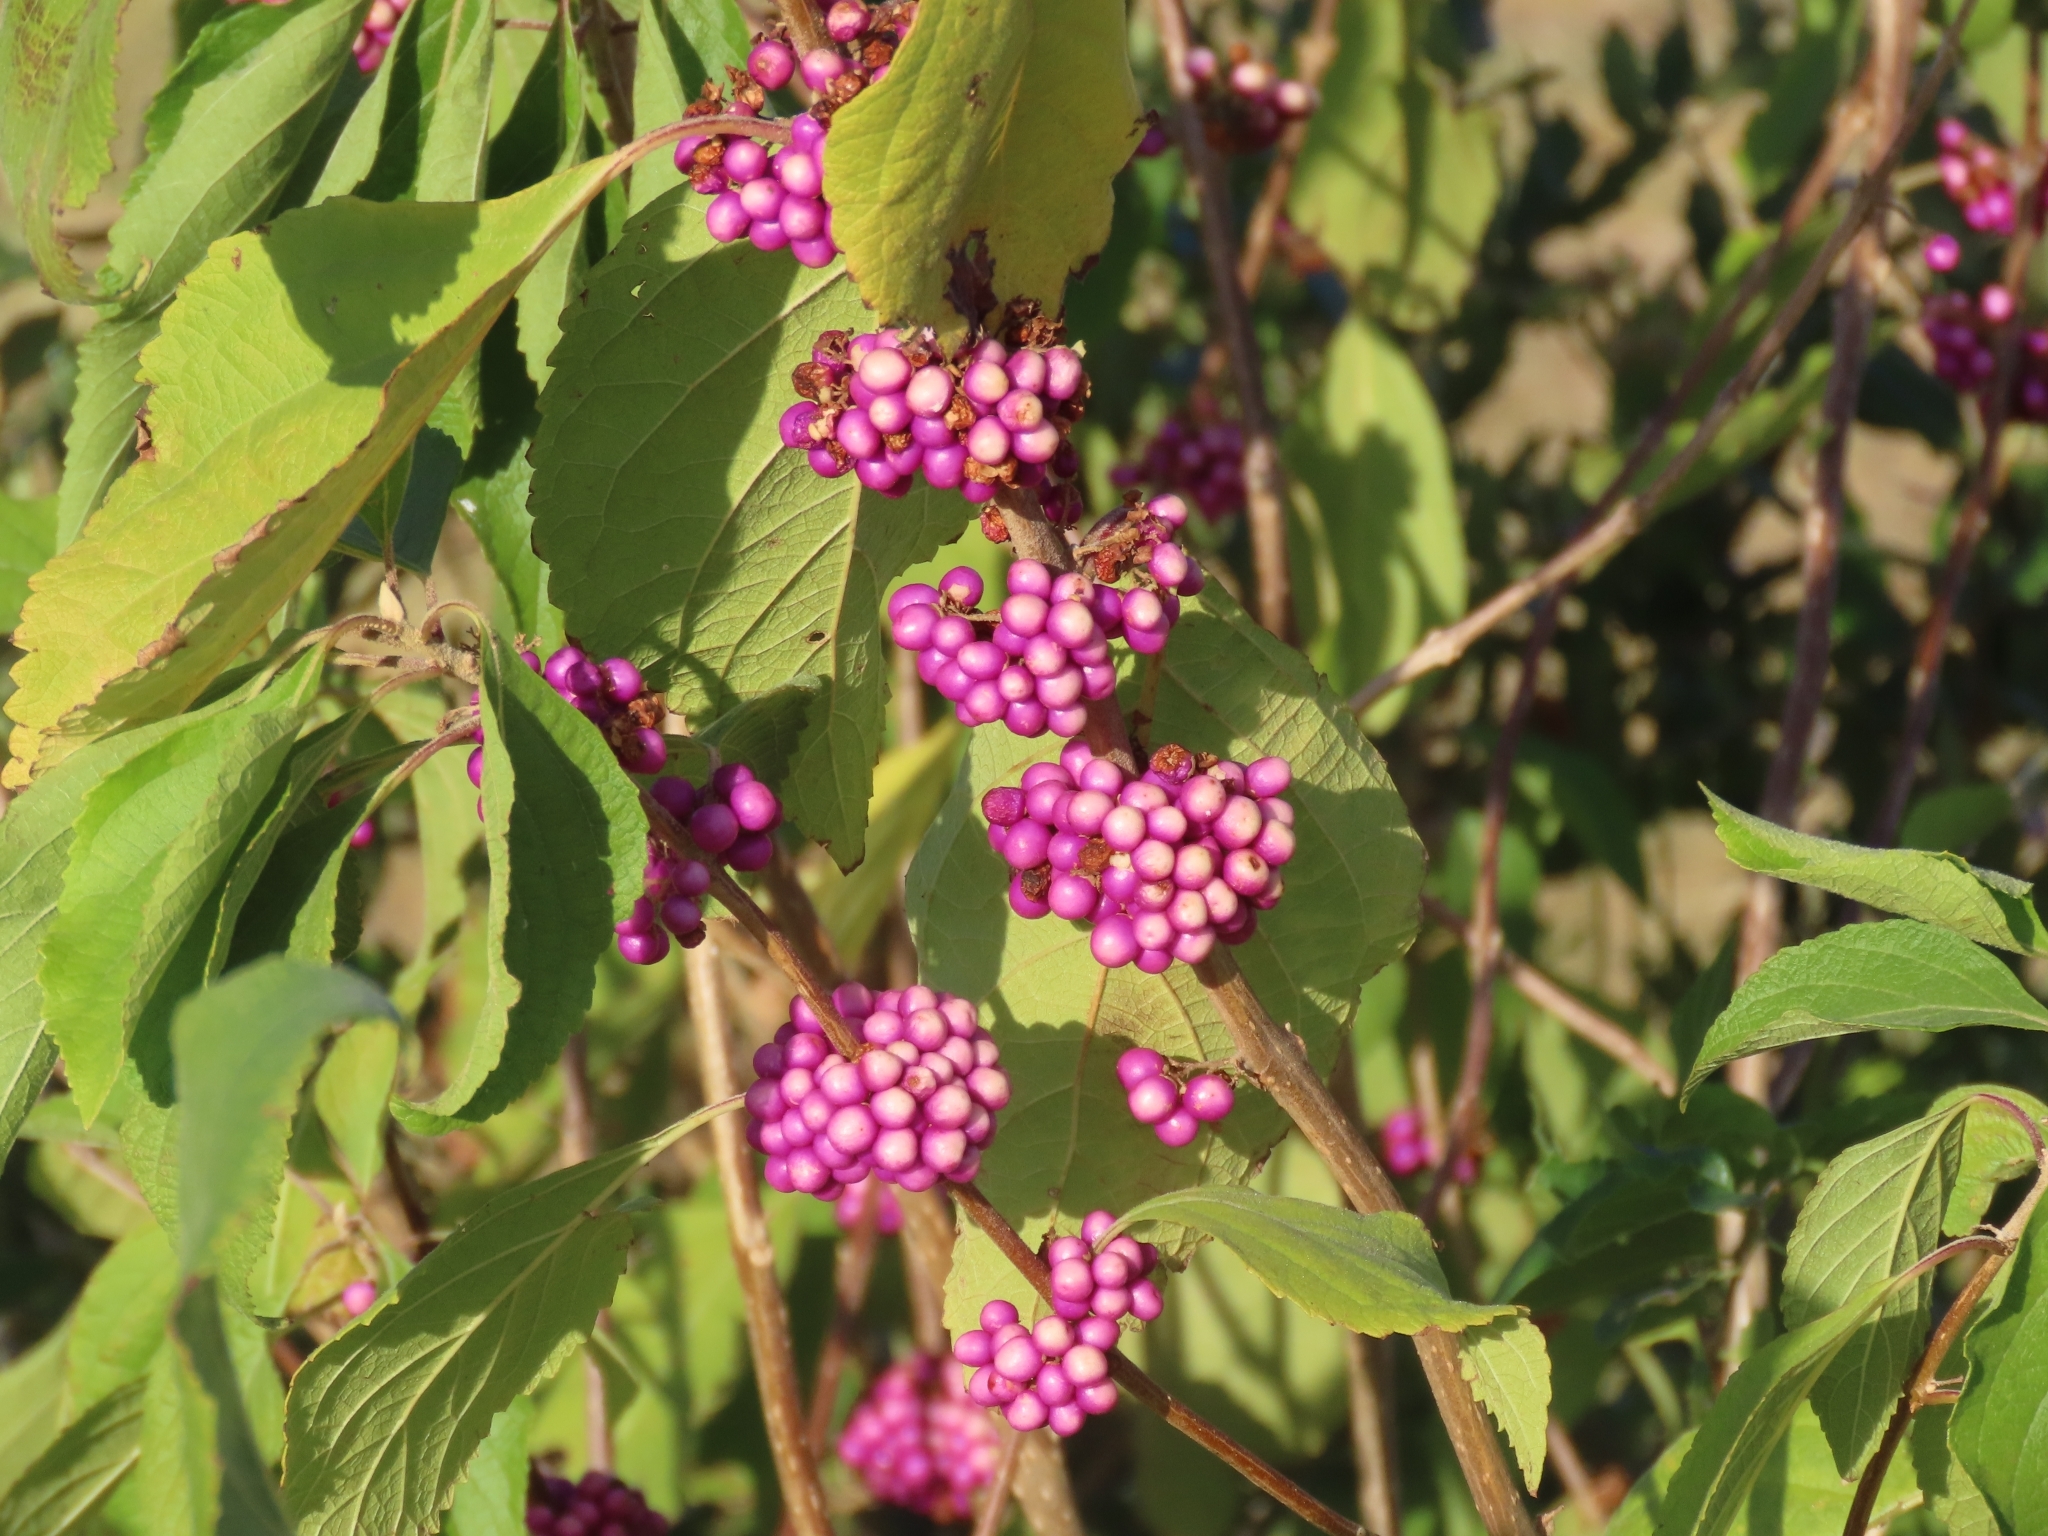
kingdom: Plantae
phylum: Tracheophyta
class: Magnoliopsida
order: Lamiales
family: Lamiaceae
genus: Callicarpa
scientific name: Callicarpa americana
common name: American beautyberry
